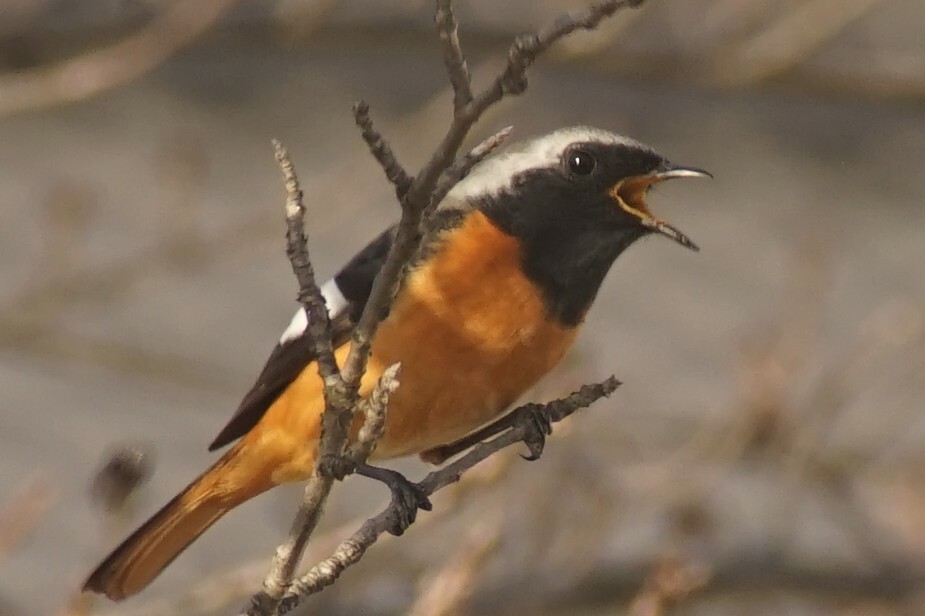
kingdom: Animalia
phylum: Chordata
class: Aves
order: Passeriformes
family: Muscicapidae
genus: Phoenicurus
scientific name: Phoenicurus auroreus
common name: Daurian redstart
